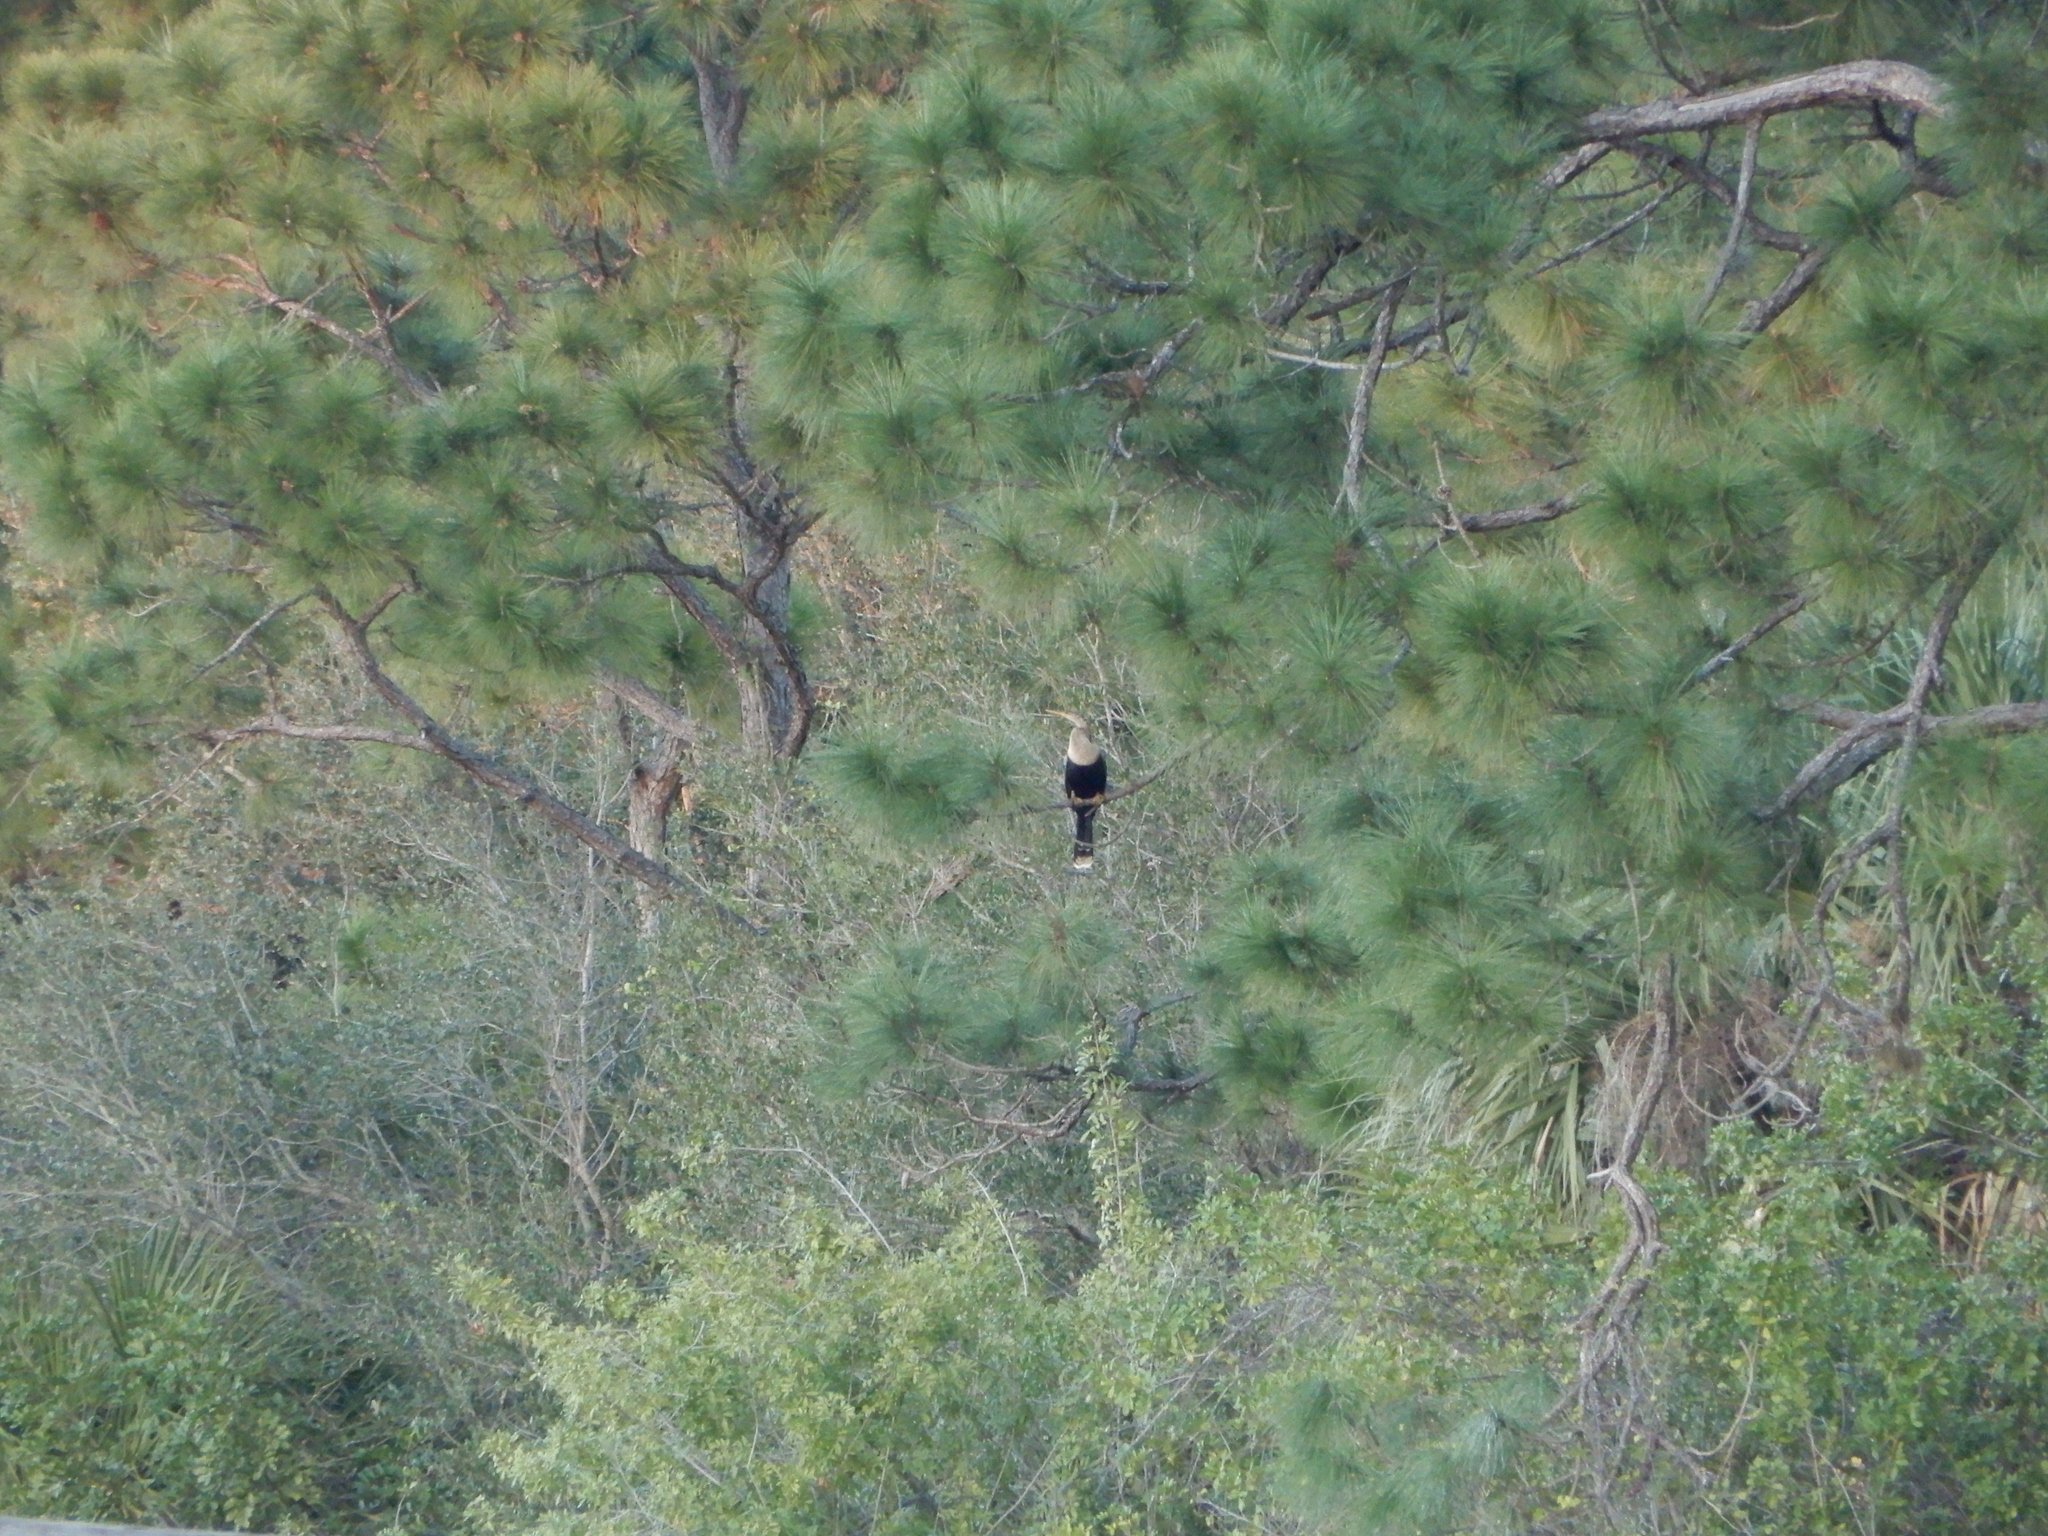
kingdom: Animalia
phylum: Chordata
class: Aves
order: Suliformes
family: Anhingidae
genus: Anhinga
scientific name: Anhinga anhinga
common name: Anhinga
